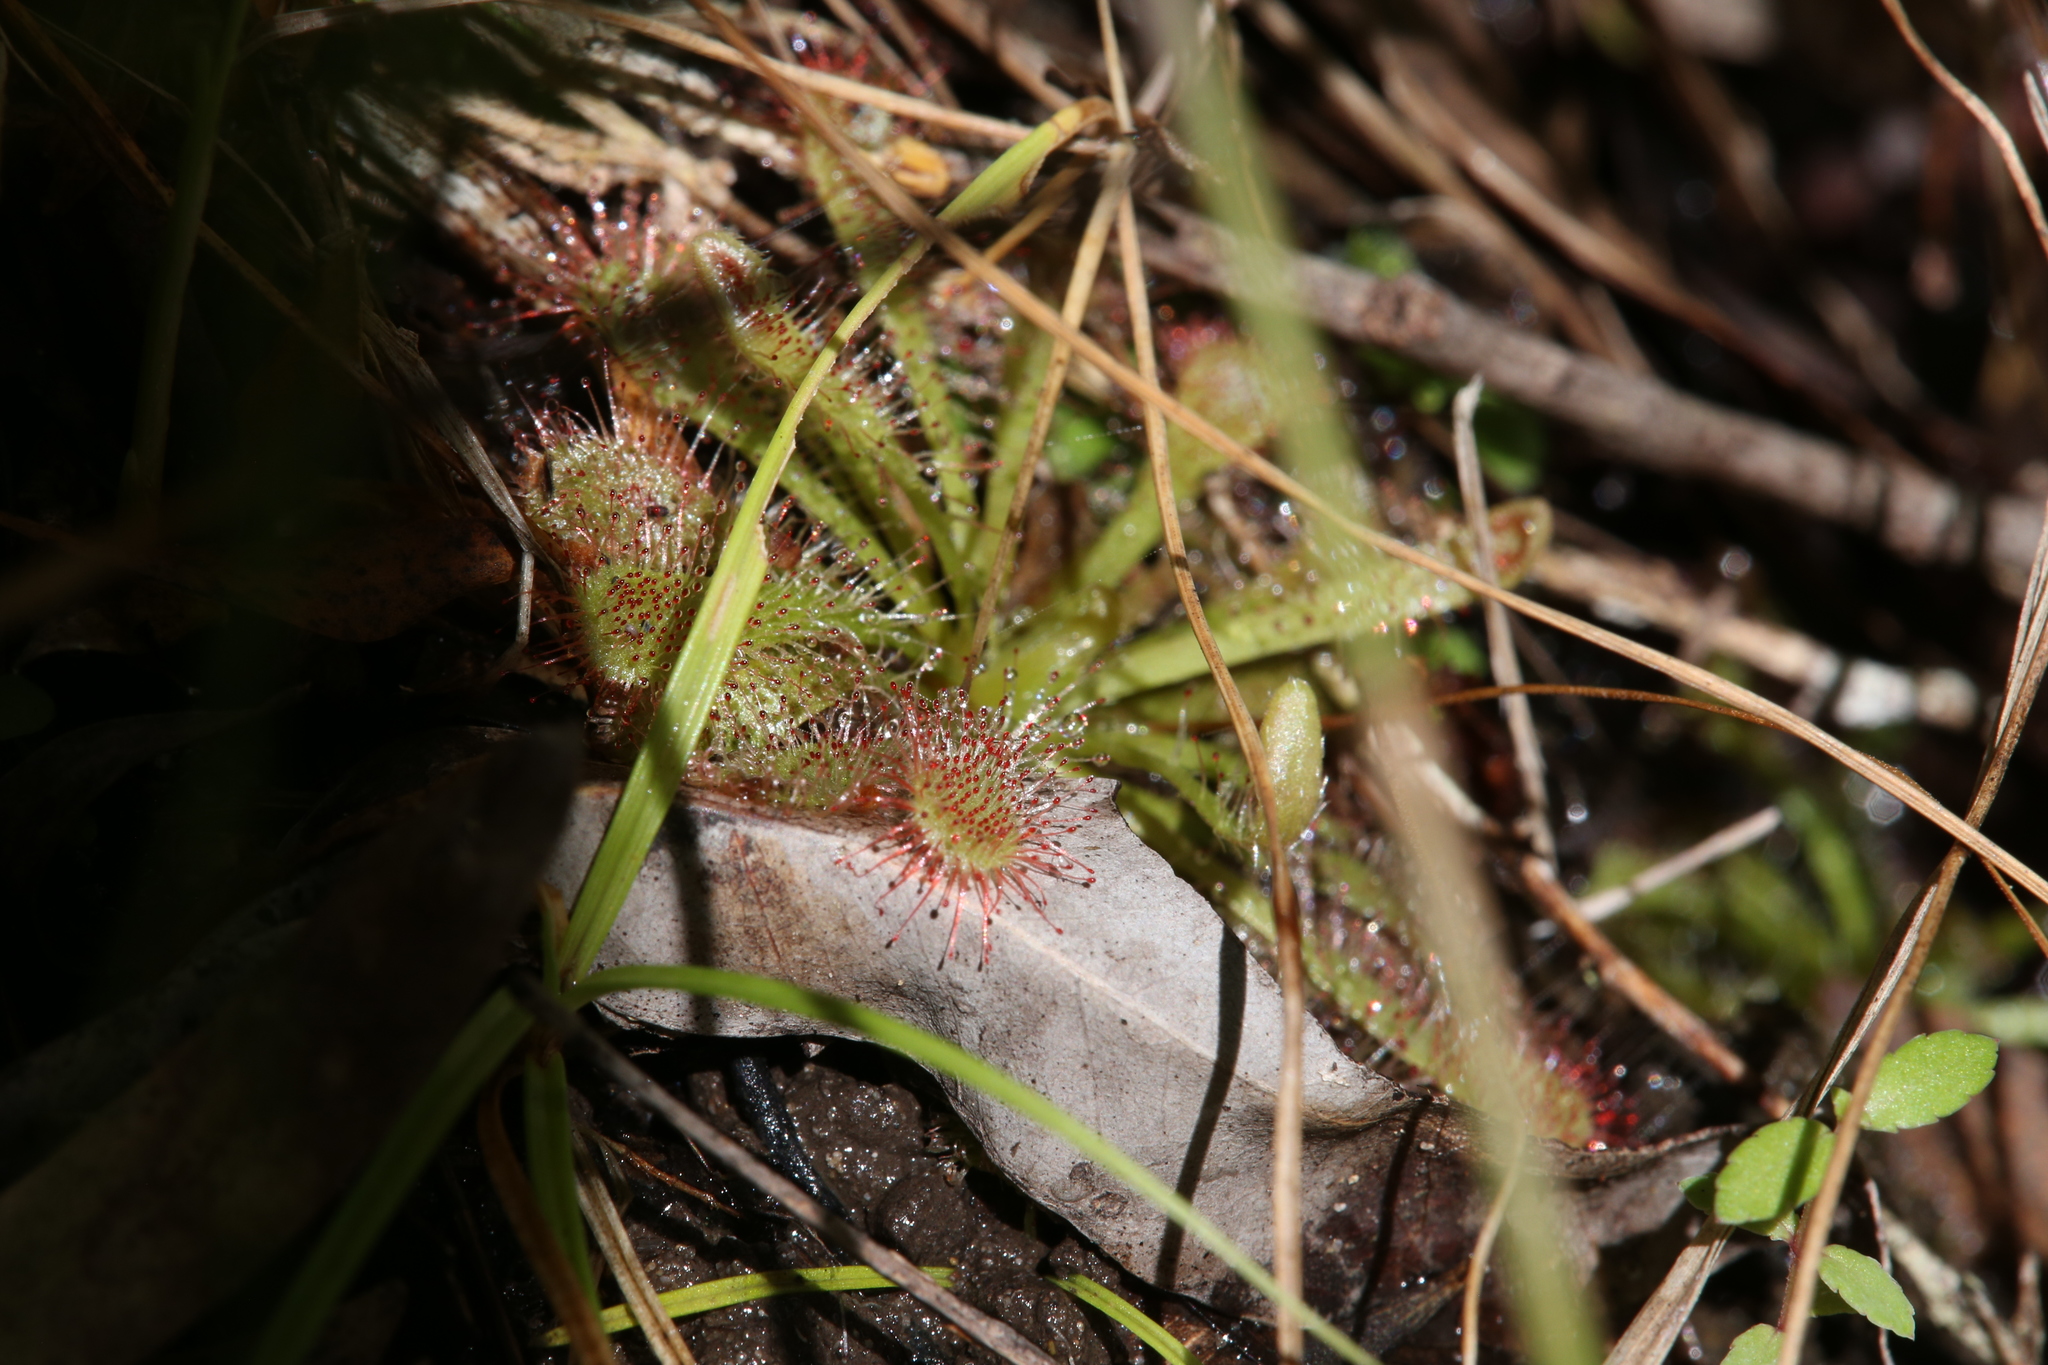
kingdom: Plantae
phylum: Tracheophyta
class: Magnoliopsida
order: Caryophyllales
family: Droseraceae
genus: Drosera
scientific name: Drosera spatulata
